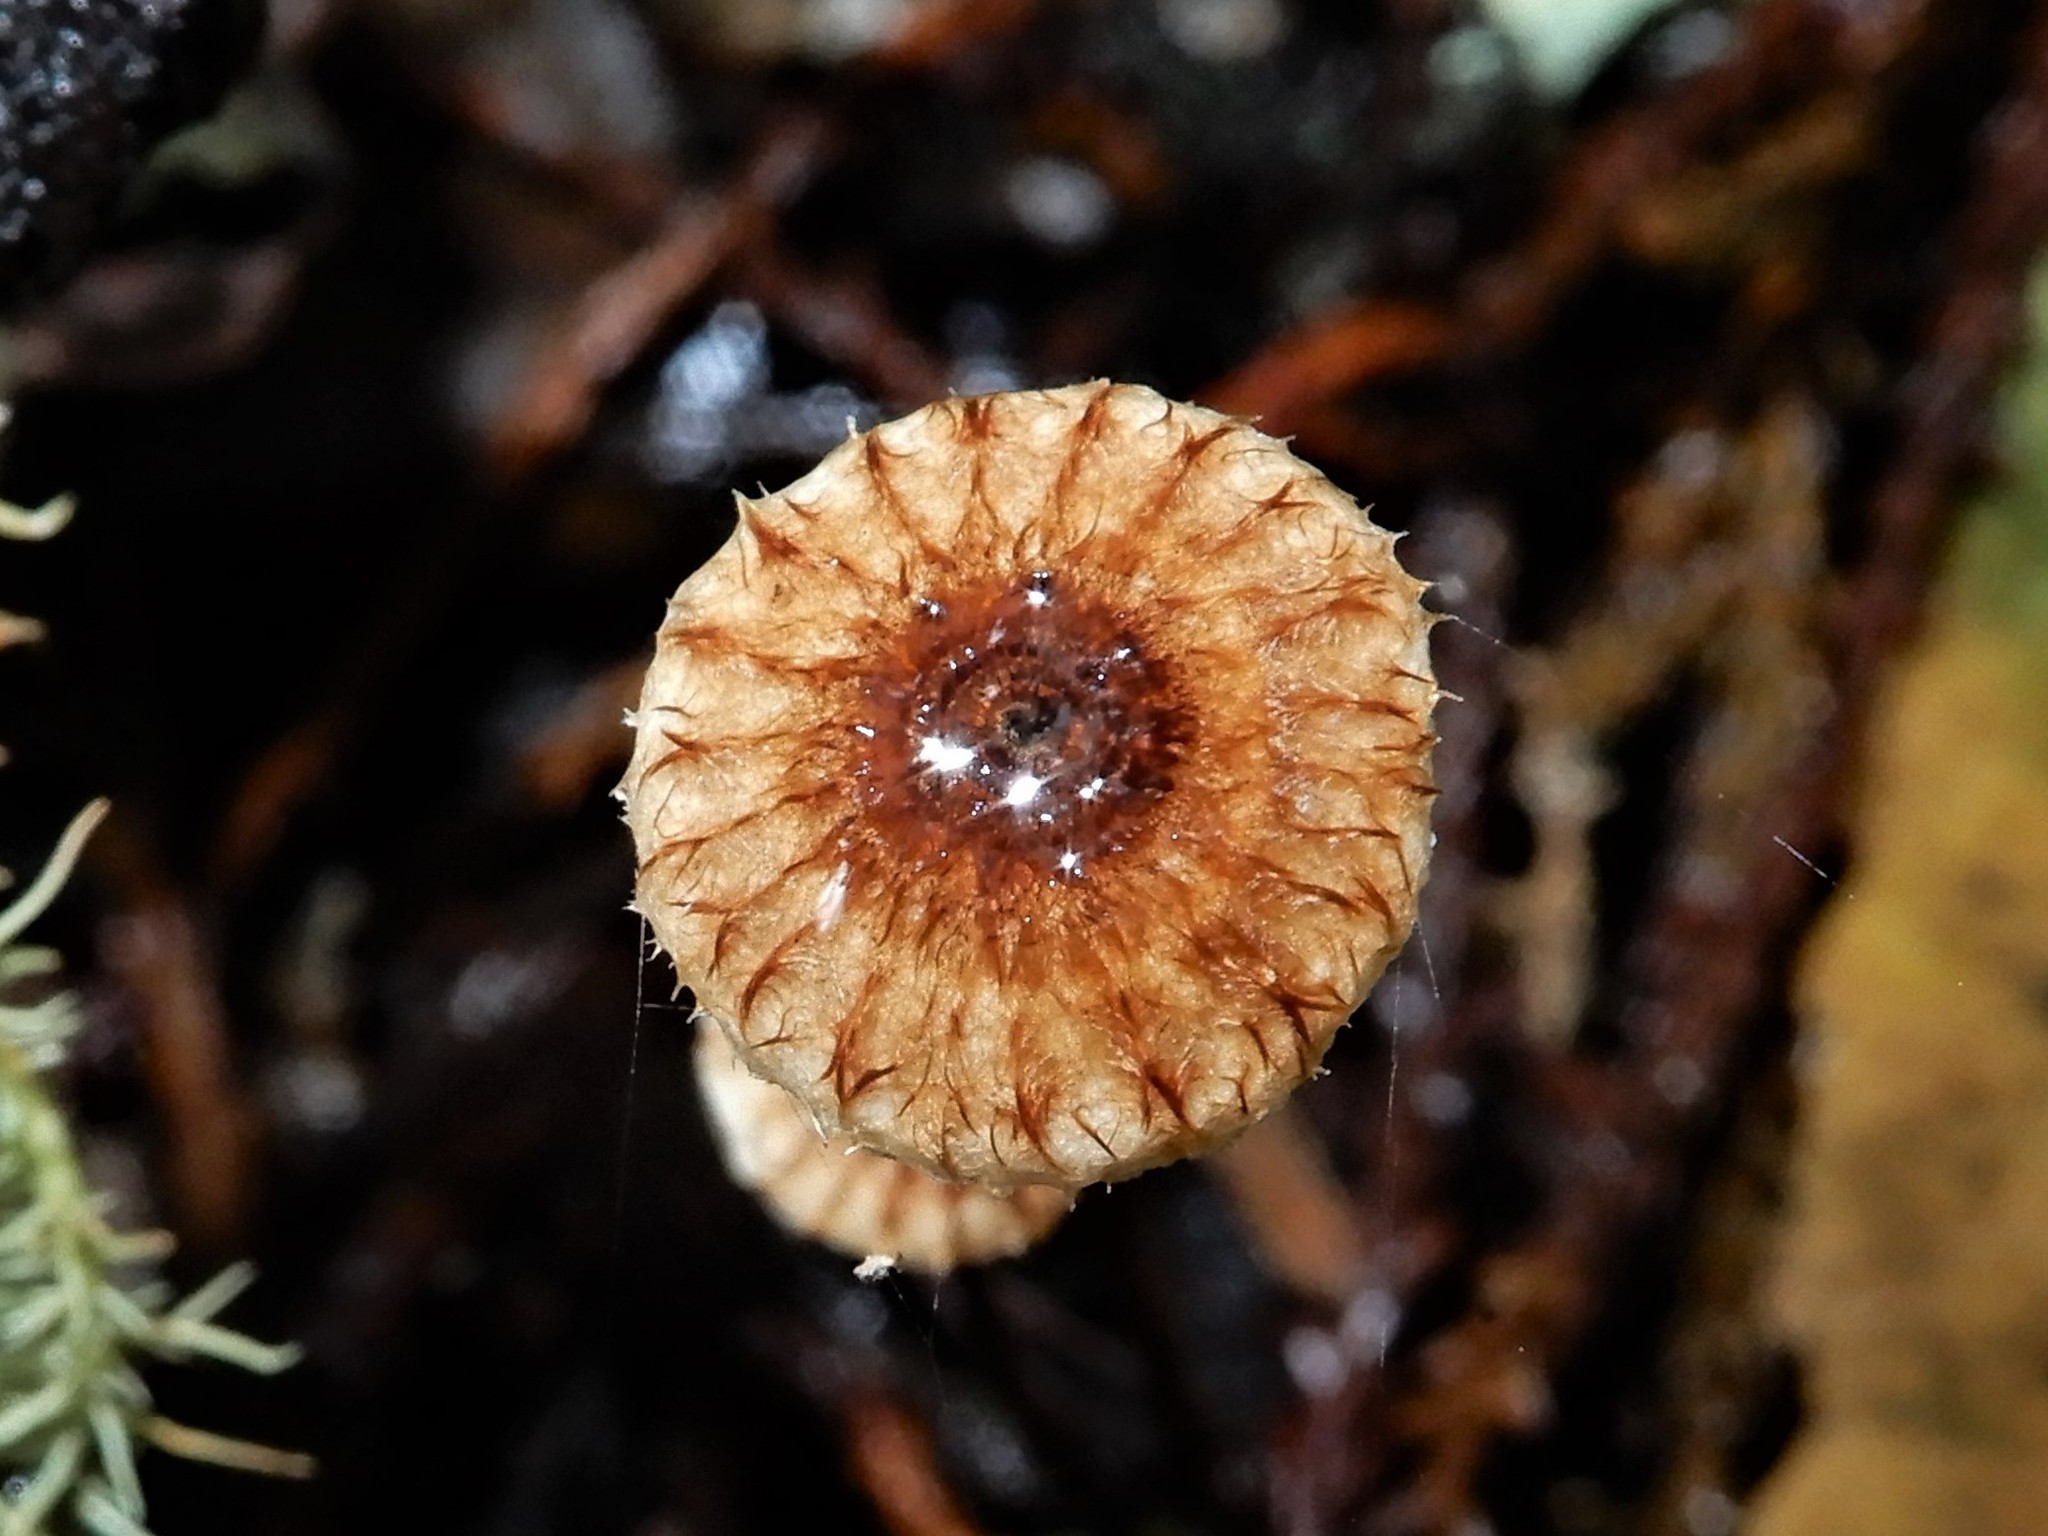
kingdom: Fungi
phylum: Basidiomycota
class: Agaricomycetes
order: Agaricales
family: Marasmiaceae
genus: Crinipellis
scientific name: Crinipellis procera
